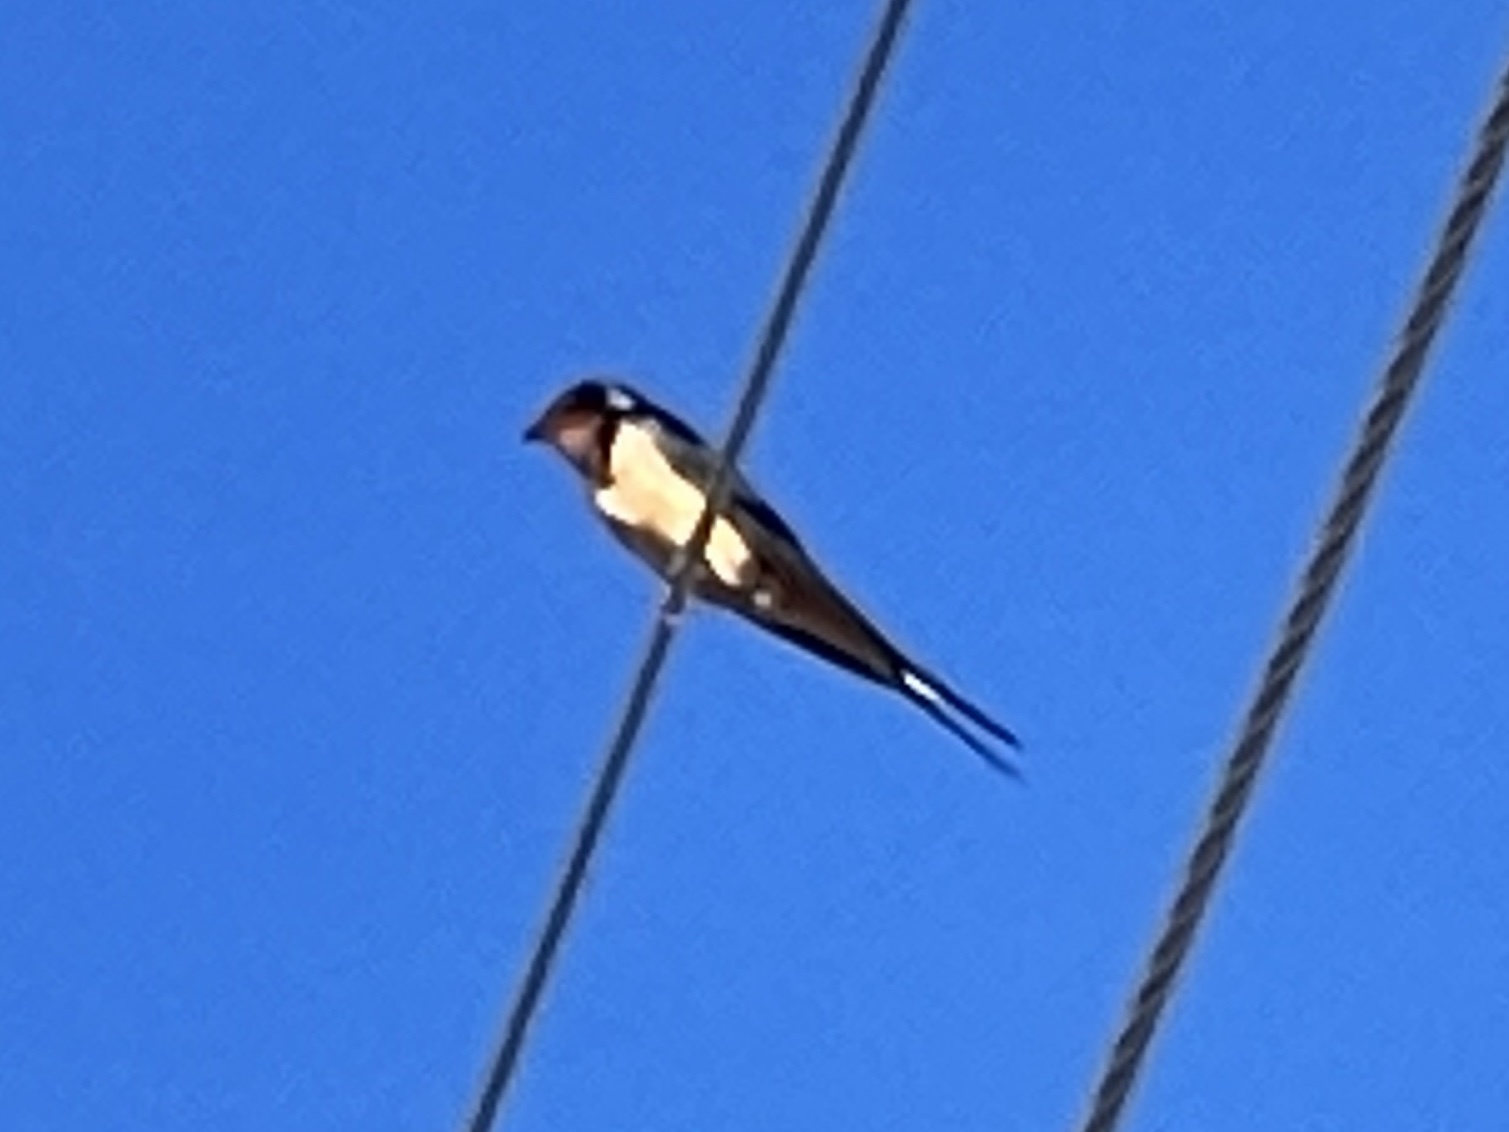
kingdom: Animalia
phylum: Chordata
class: Aves
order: Passeriformes
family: Hirundinidae
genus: Hirundo
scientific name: Hirundo rustica
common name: Barn swallow
